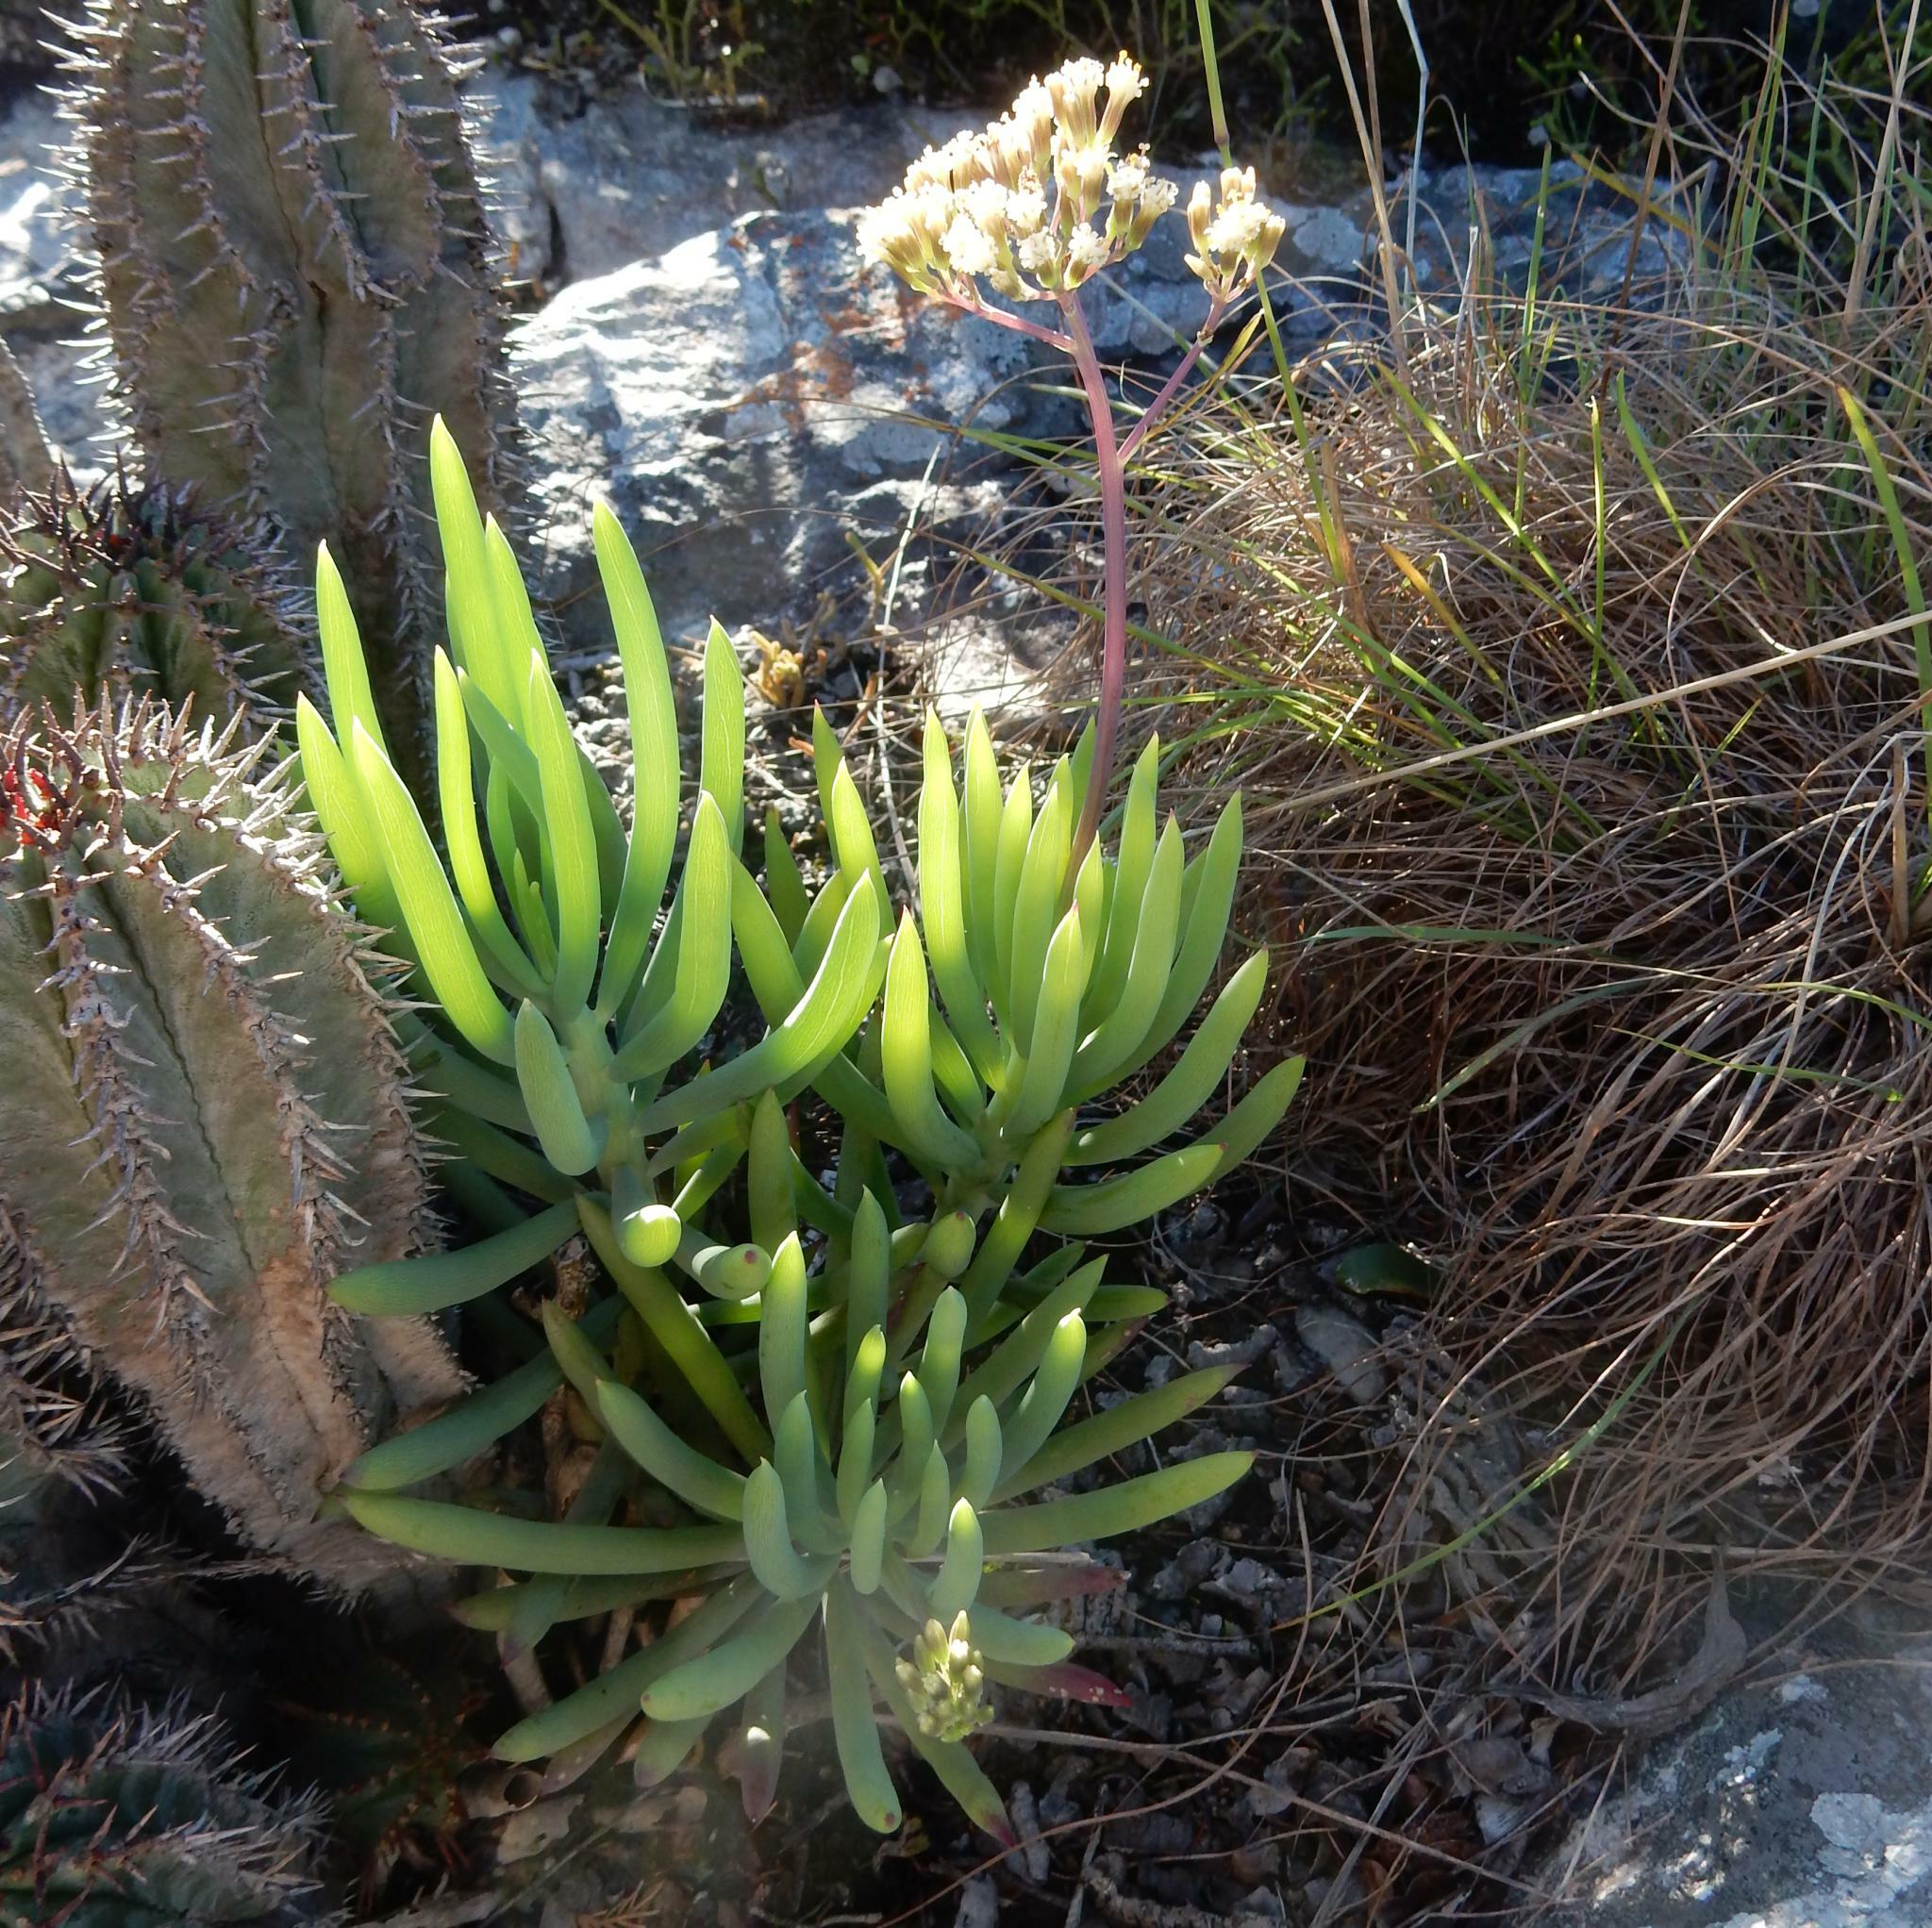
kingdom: Plantae
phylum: Tracheophyta
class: Magnoliopsida
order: Asterales
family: Asteraceae
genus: Curio
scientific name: Curio talinoides
